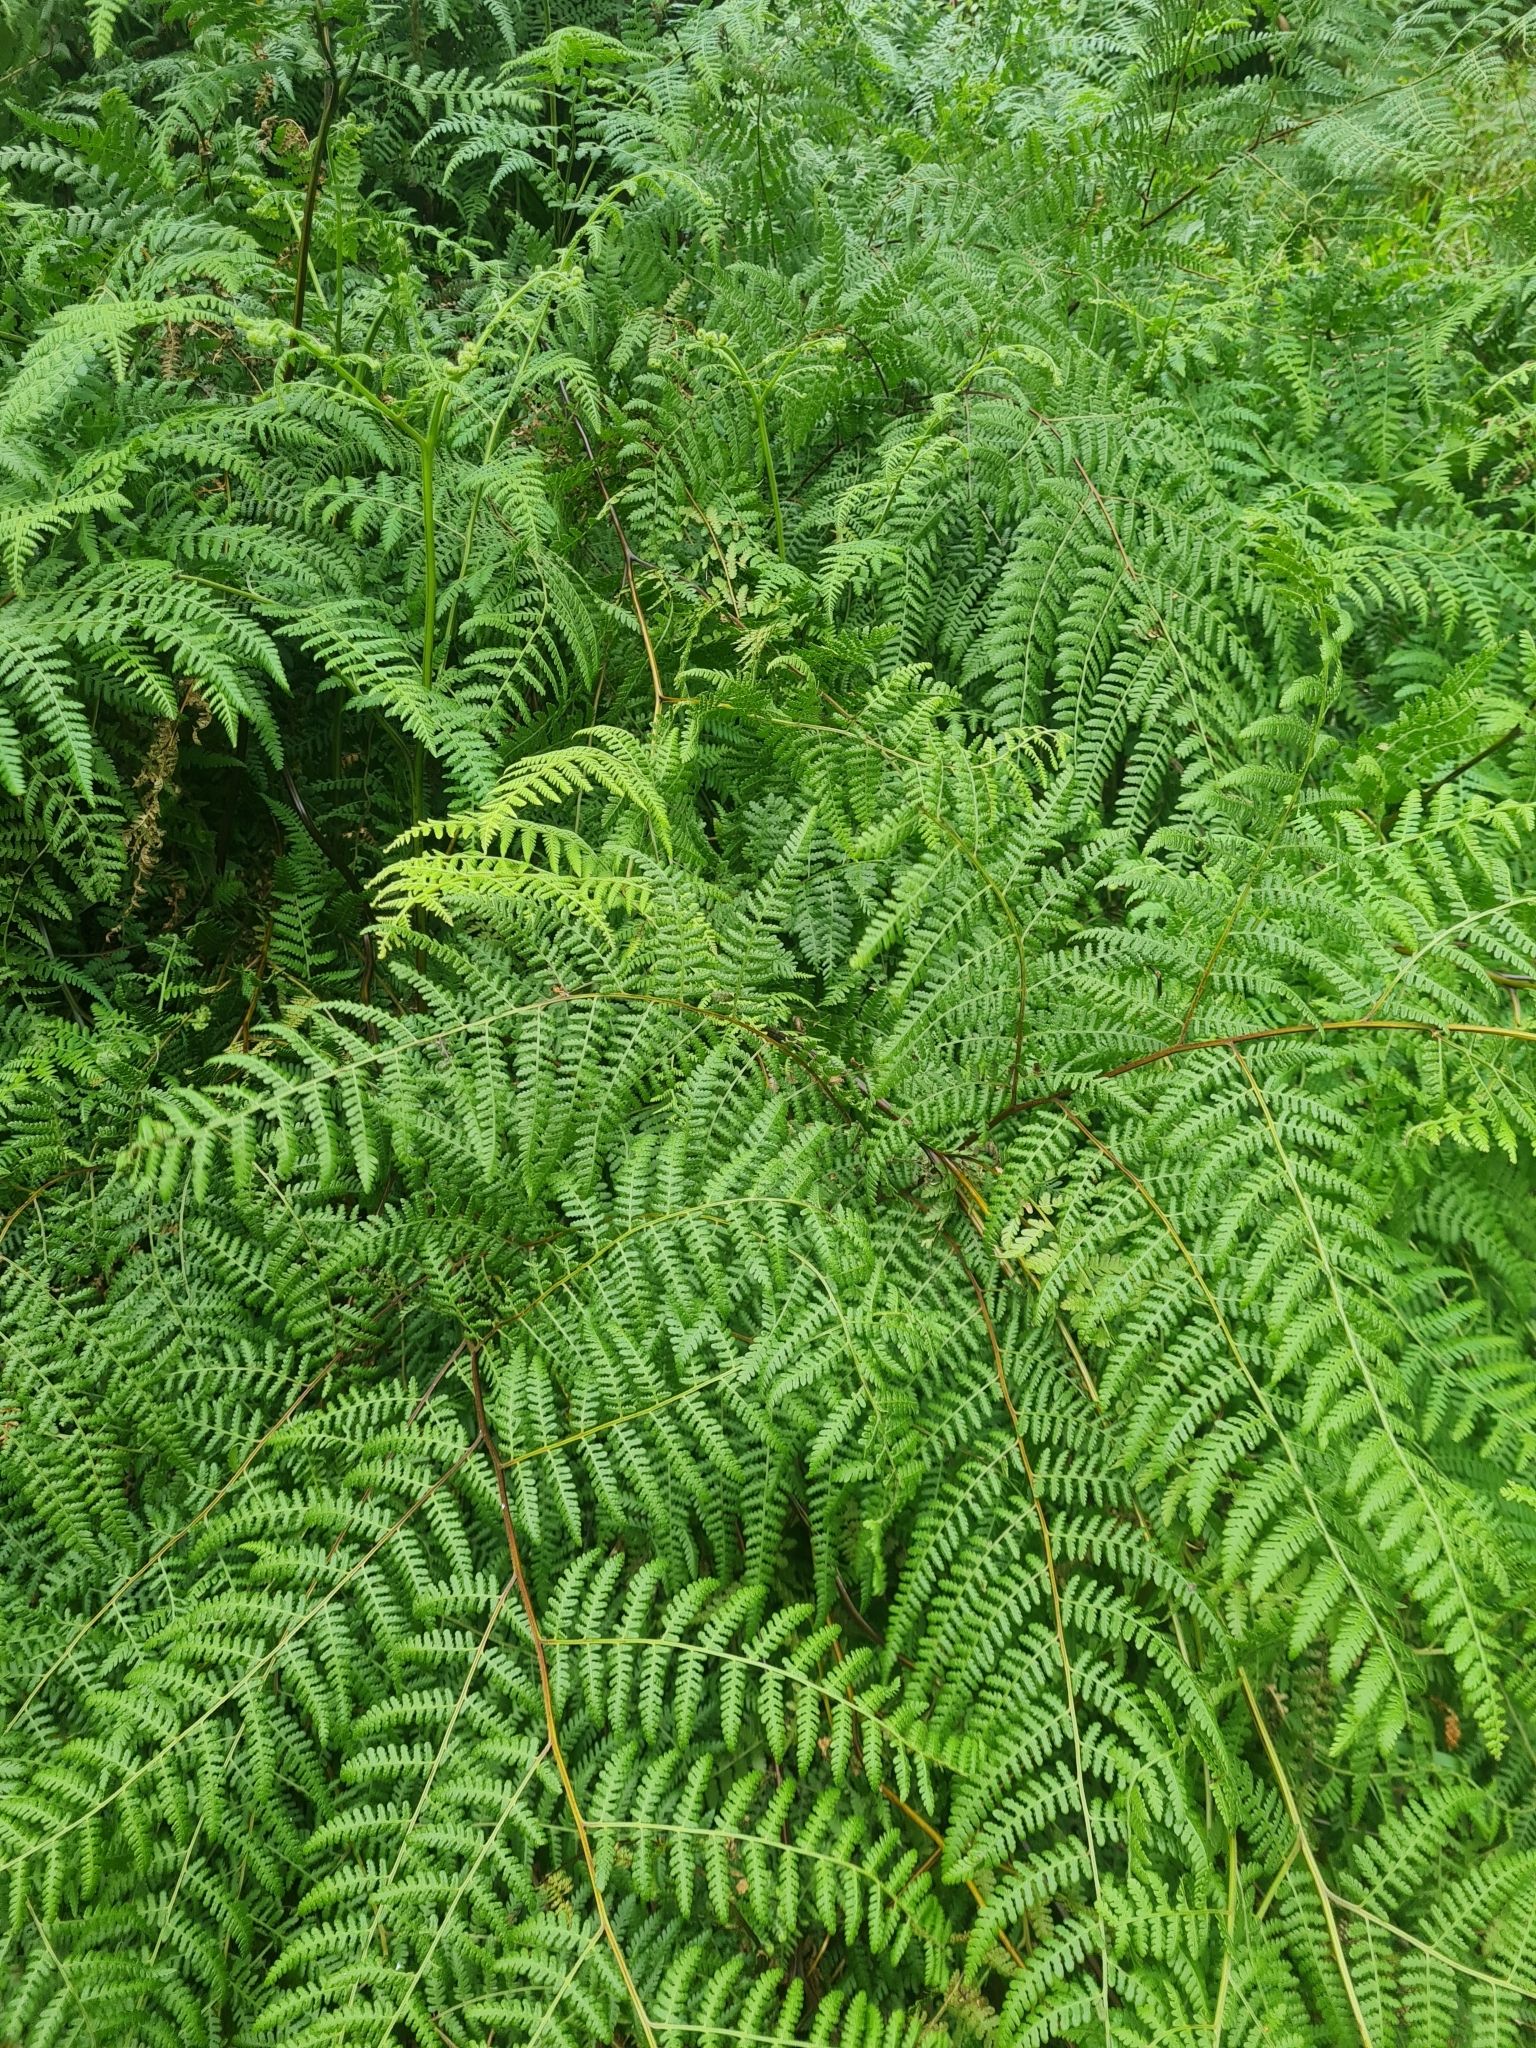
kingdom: Plantae
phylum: Tracheophyta
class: Polypodiopsida
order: Polypodiales
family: Dennstaedtiaceae
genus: Hypolepis
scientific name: Hypolepis ambigua
